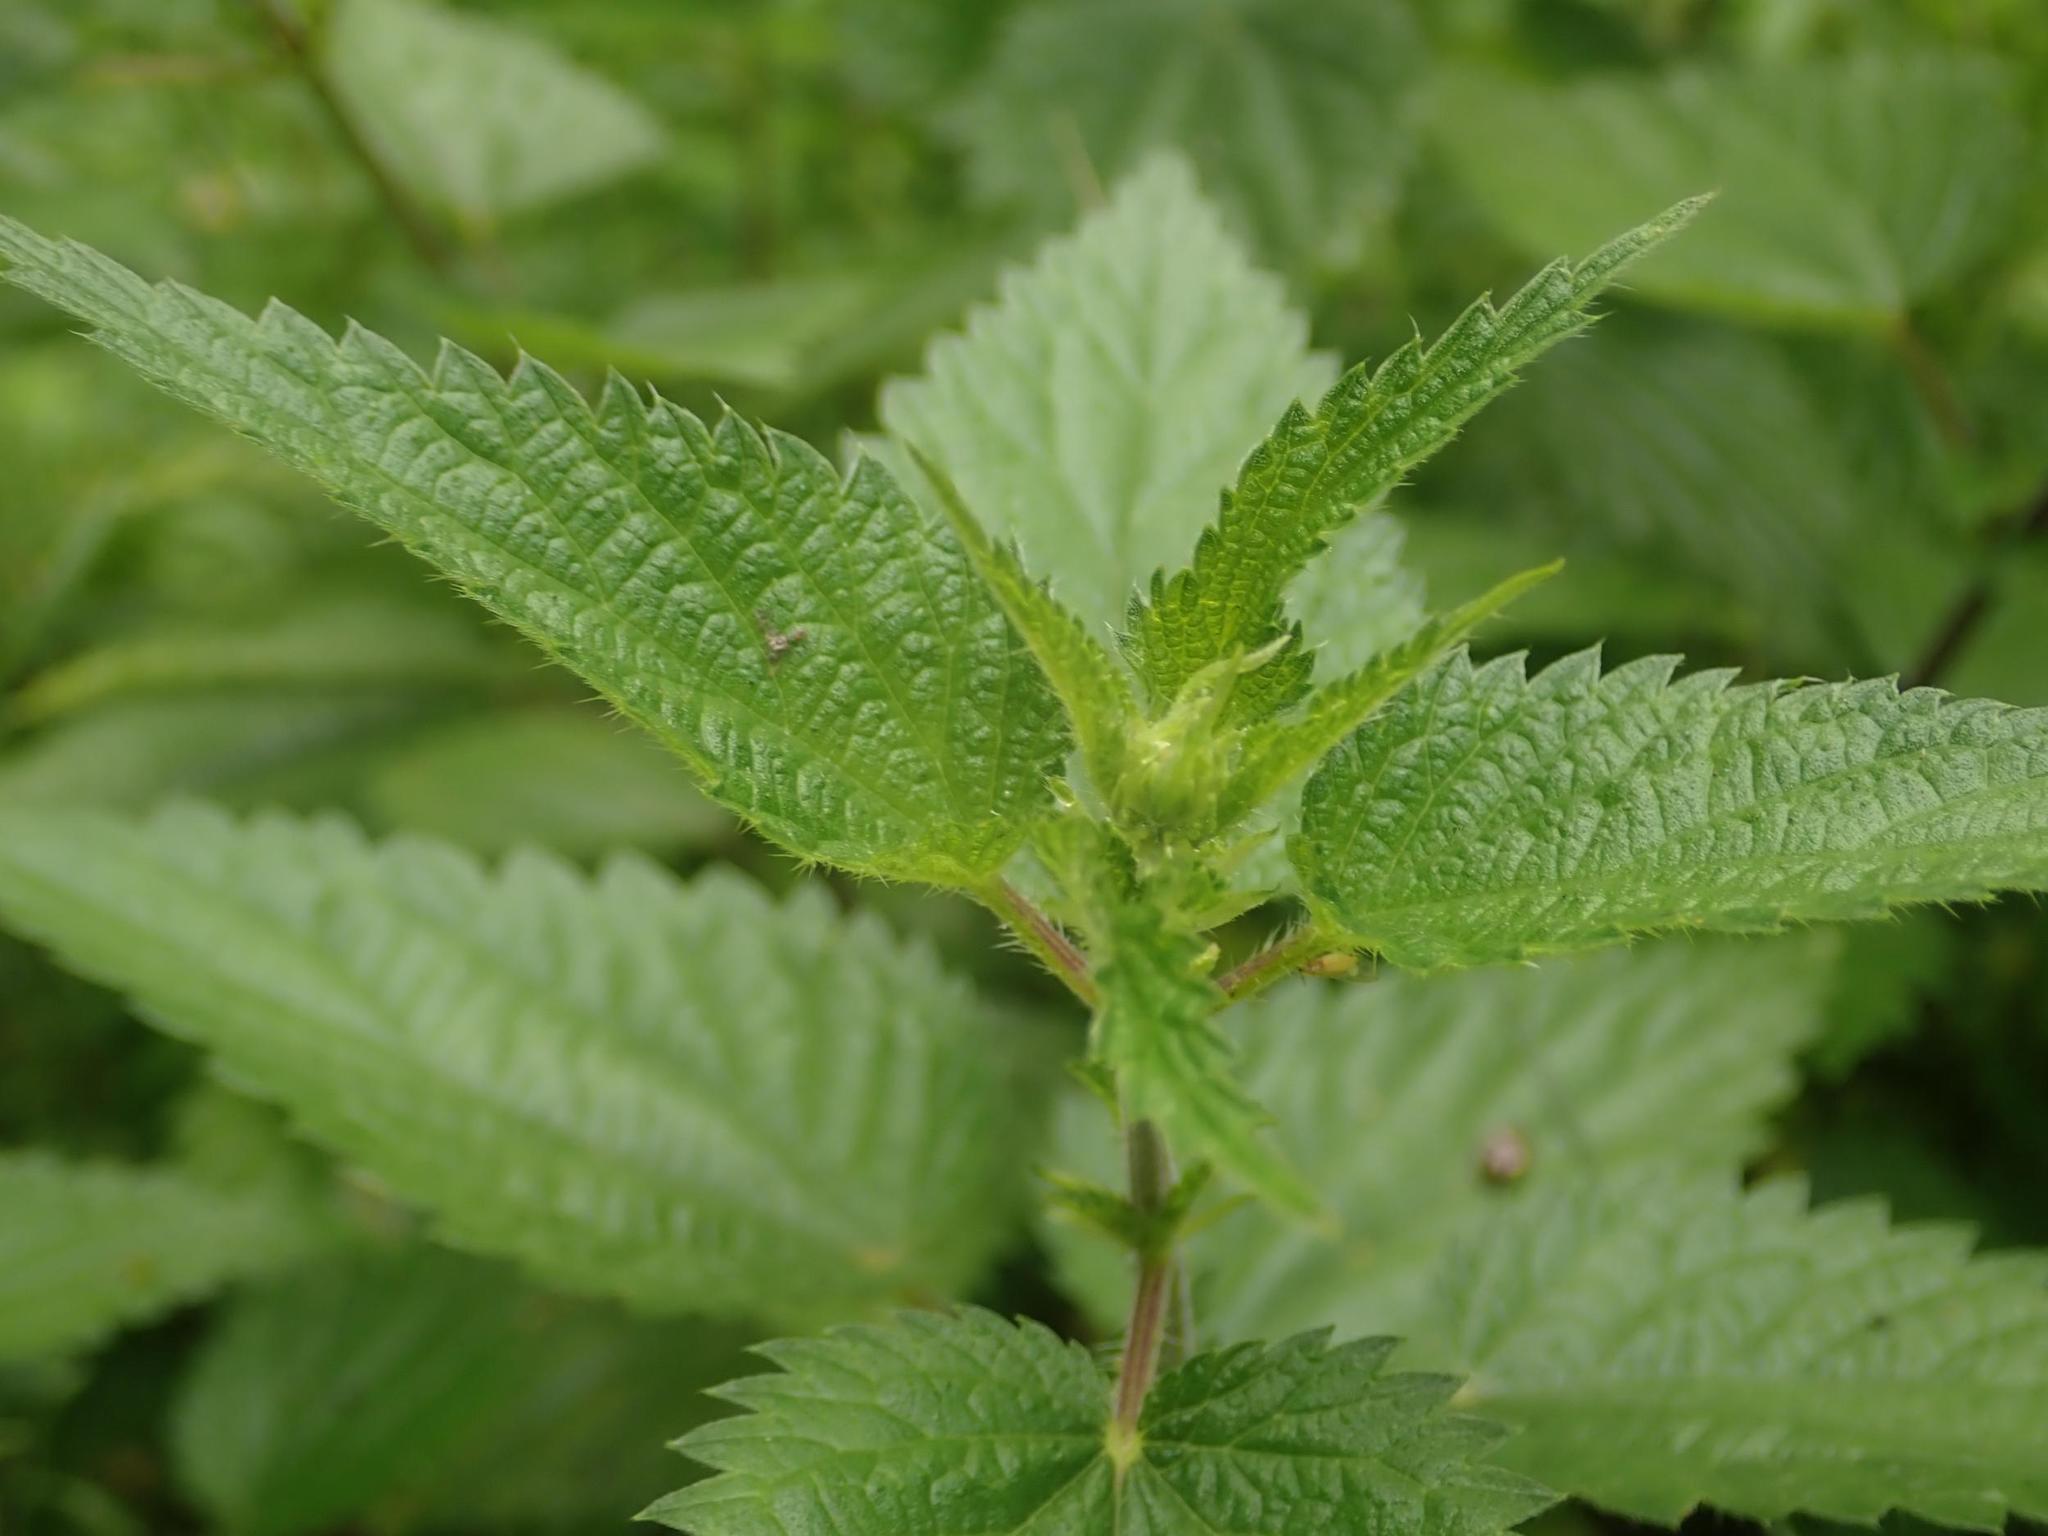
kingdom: Plantae
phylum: Tracheophyta
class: Magnoliopsida
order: Rosales
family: Urticaceae
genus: Urtica
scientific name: Urtica dioica
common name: Common nettle
